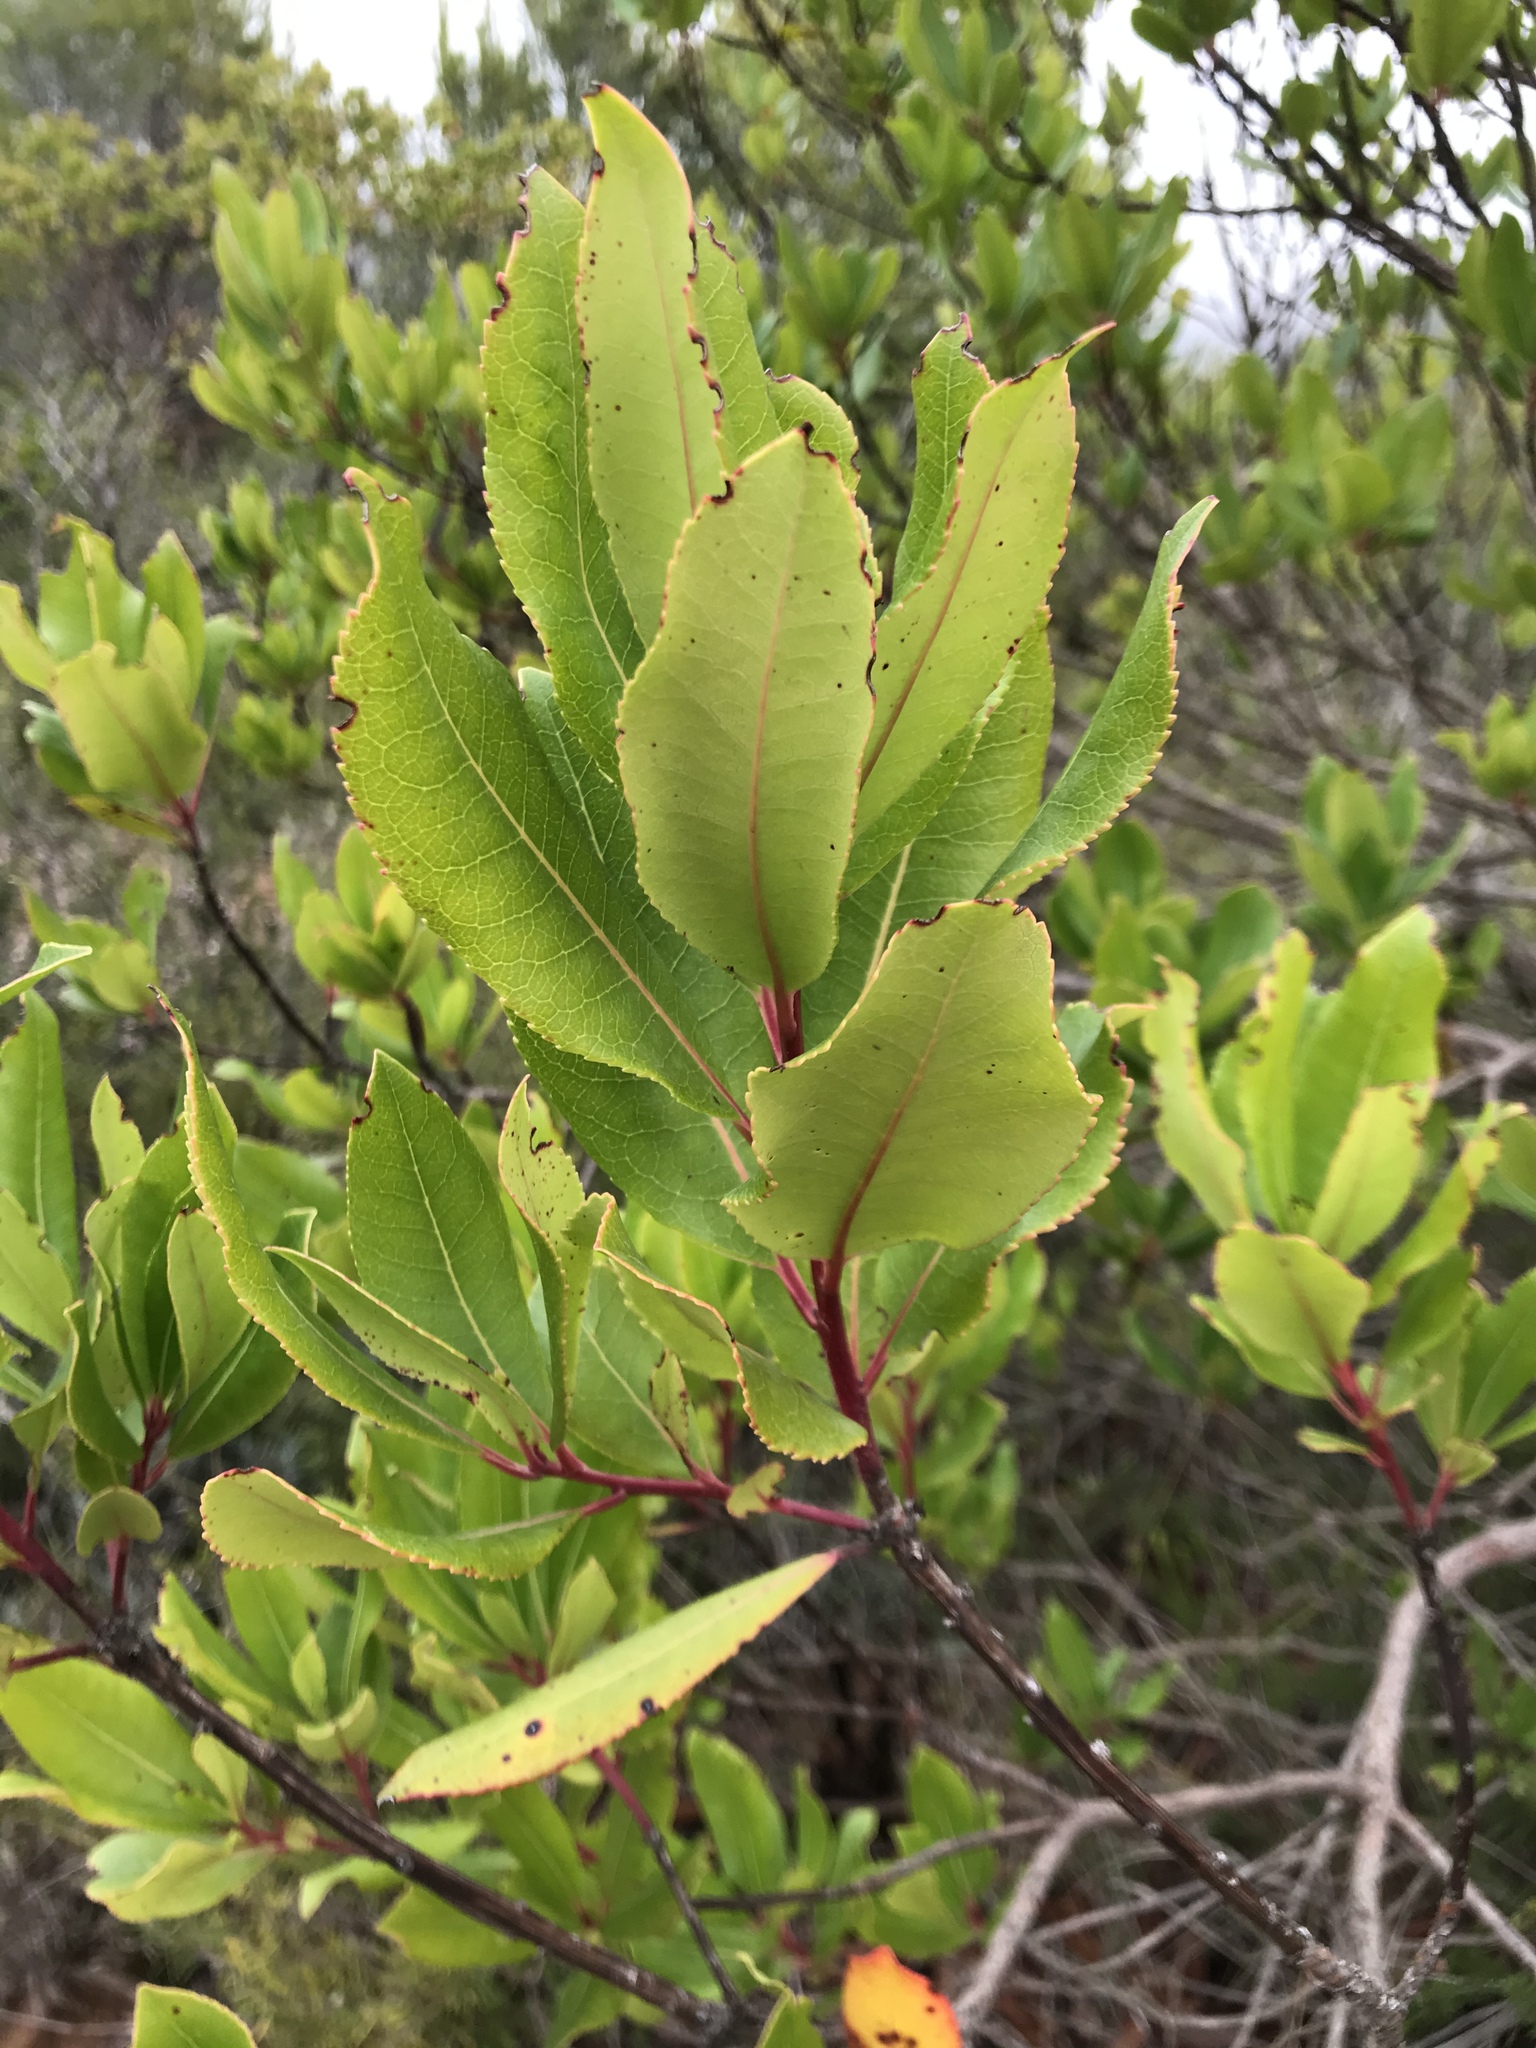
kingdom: Plantae
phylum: Tracheophyta
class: Magnoliopsida
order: Ericales
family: Ericaceae
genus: Arbutus
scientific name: Arbutus unedo
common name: Strawberry-tree
